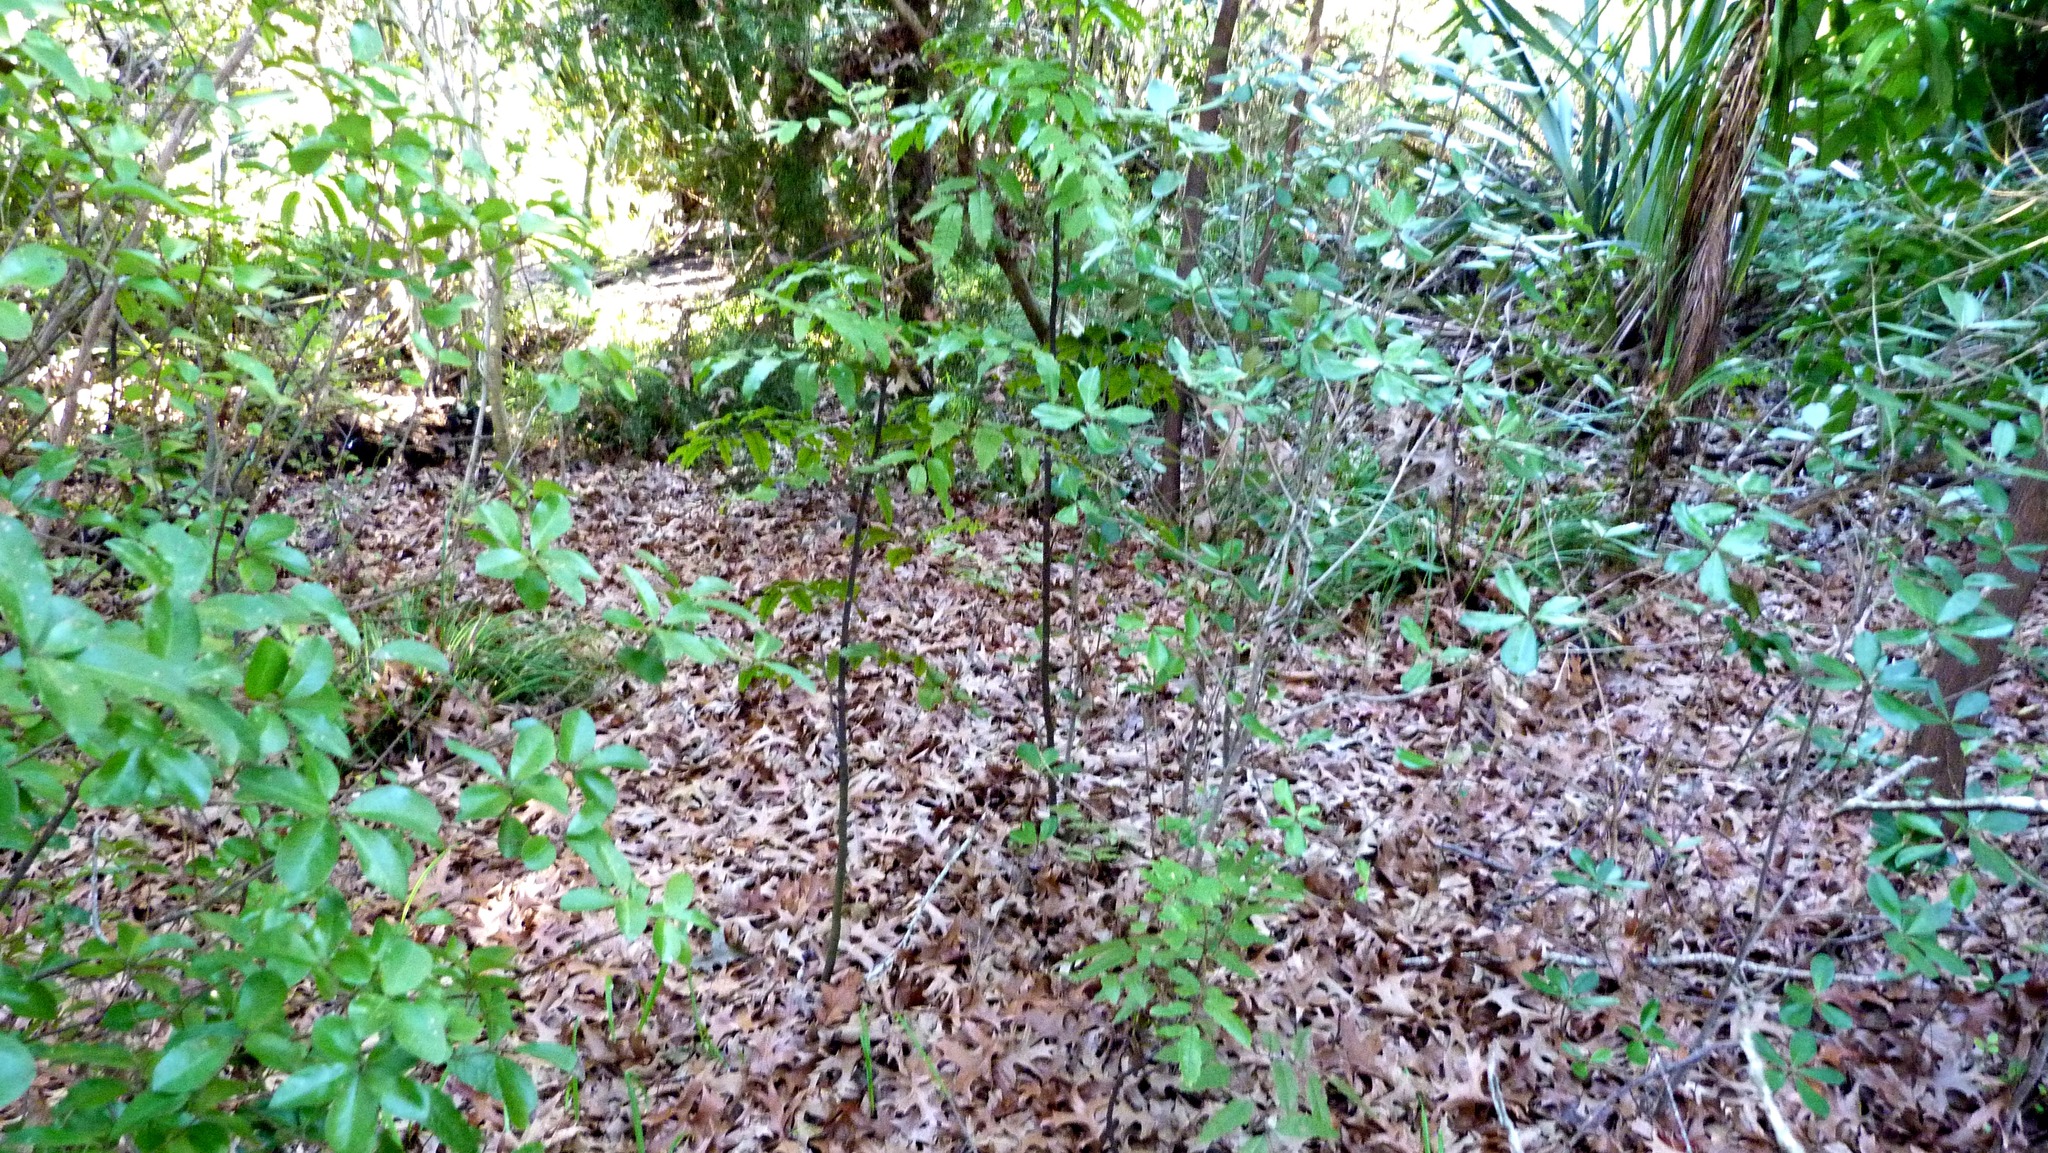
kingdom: Plantae
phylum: Tracheophyta
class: Magnoliopsida
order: Sapindales
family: Sapindaceae
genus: Alectryon
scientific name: Alectryon excelsus
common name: Three kings titoki
